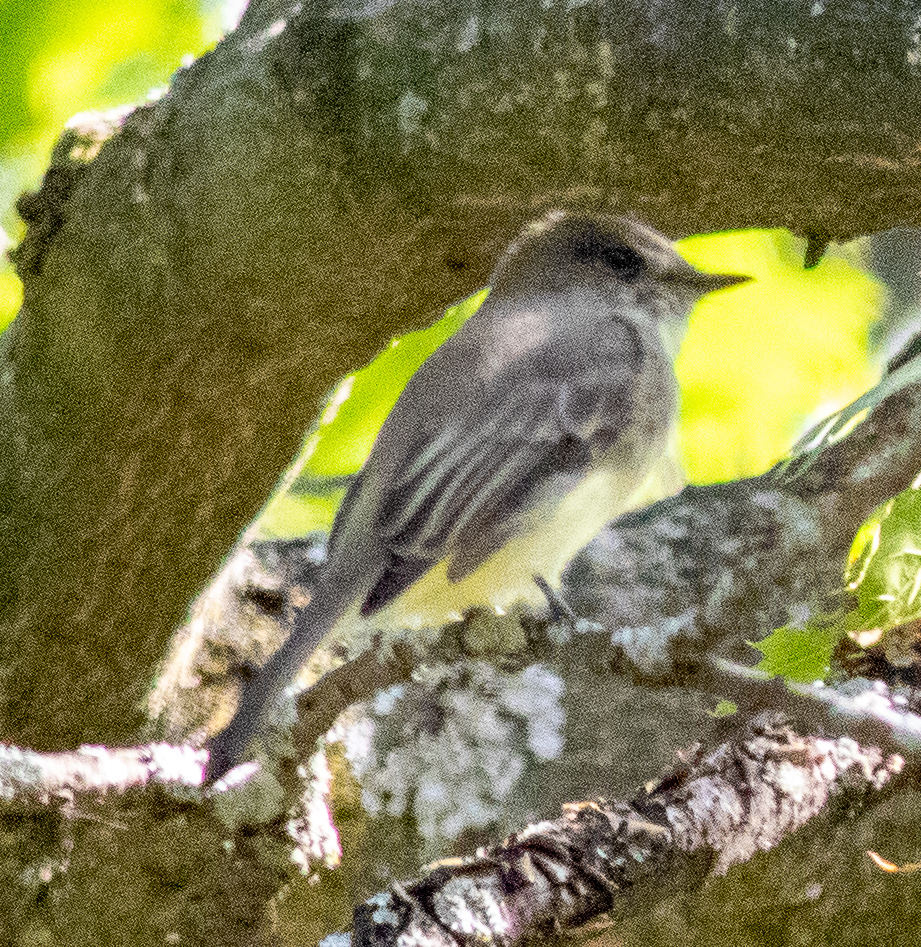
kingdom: Animalia
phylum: Chordata
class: Aves
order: Passeriformes
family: Tyrannidae
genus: Sayornis
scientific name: Sayornis phoebe
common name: Eastern phoebe
